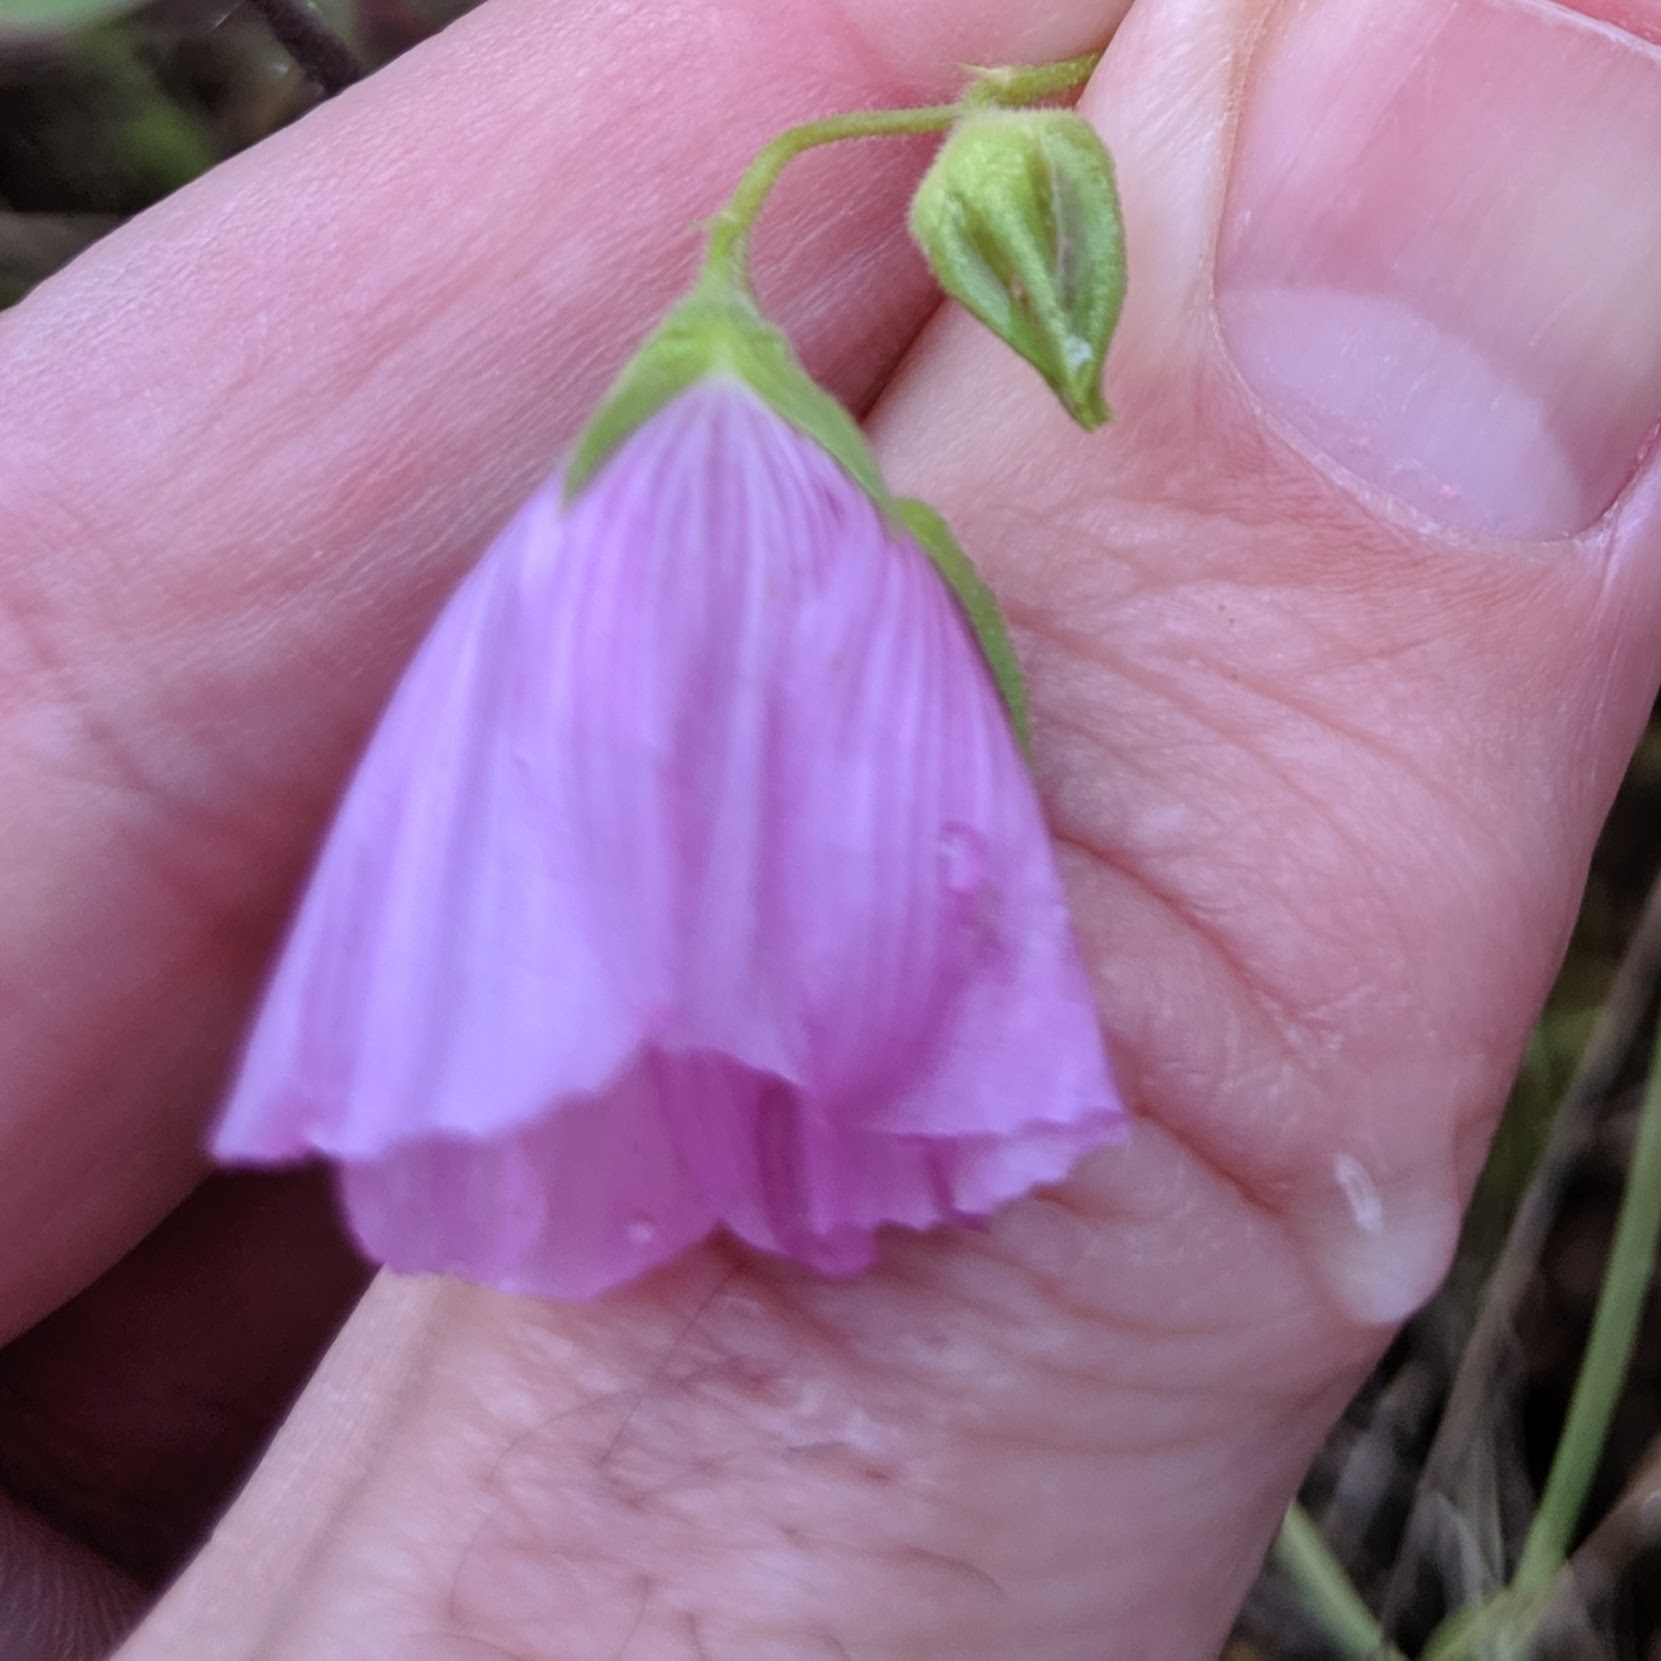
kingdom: Plantae
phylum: Tracheophyta
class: Magnoliopsida
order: Malvales
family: Malvaceae
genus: Sidalcea
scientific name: Sidalcea glaucescens
